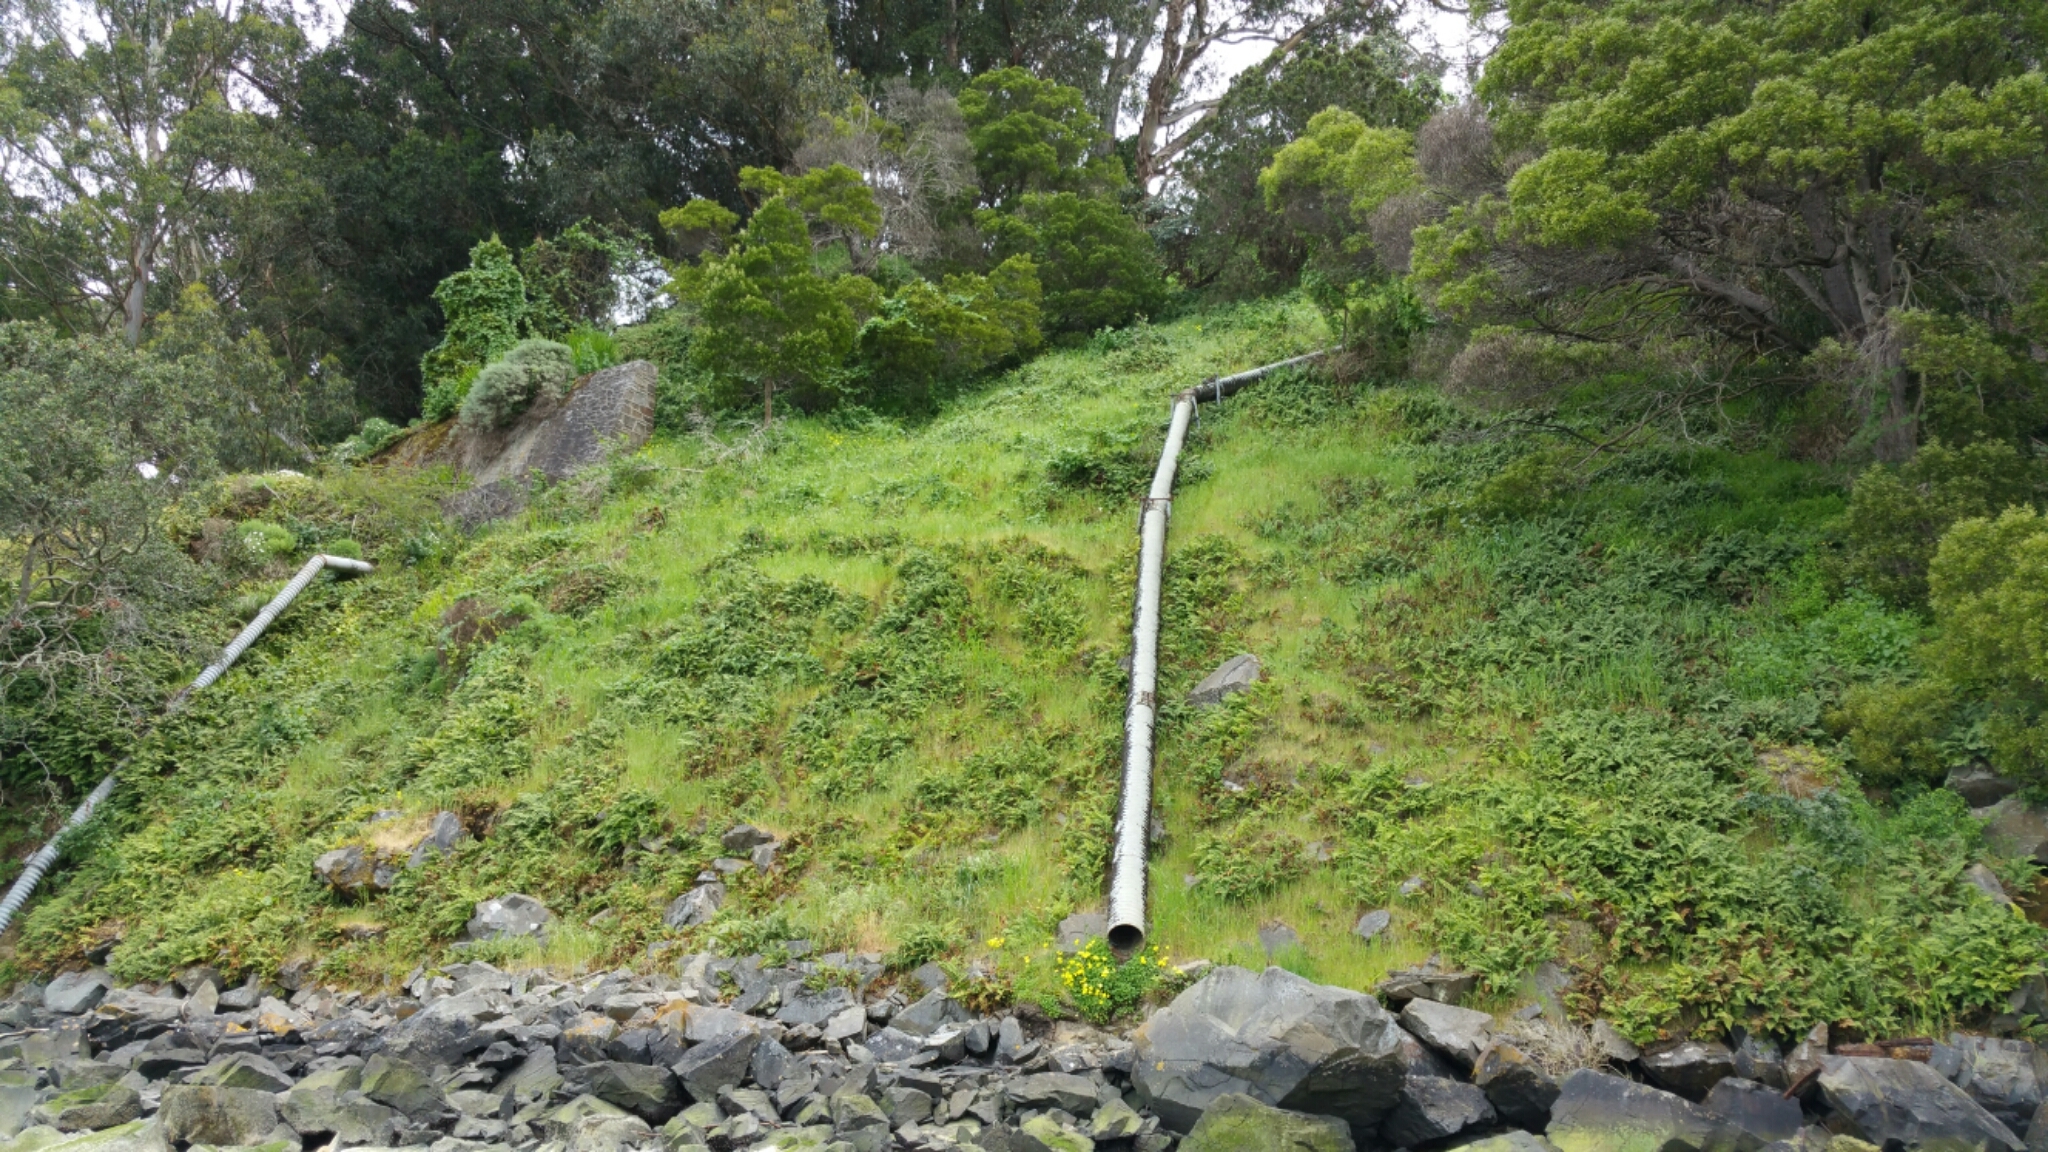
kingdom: Plantae
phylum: Tracheophyta
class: Polypodiopsida
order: Polypodiales
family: Polypodiaceae
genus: Polypodium
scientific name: Polypodium californicum
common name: California polypody
